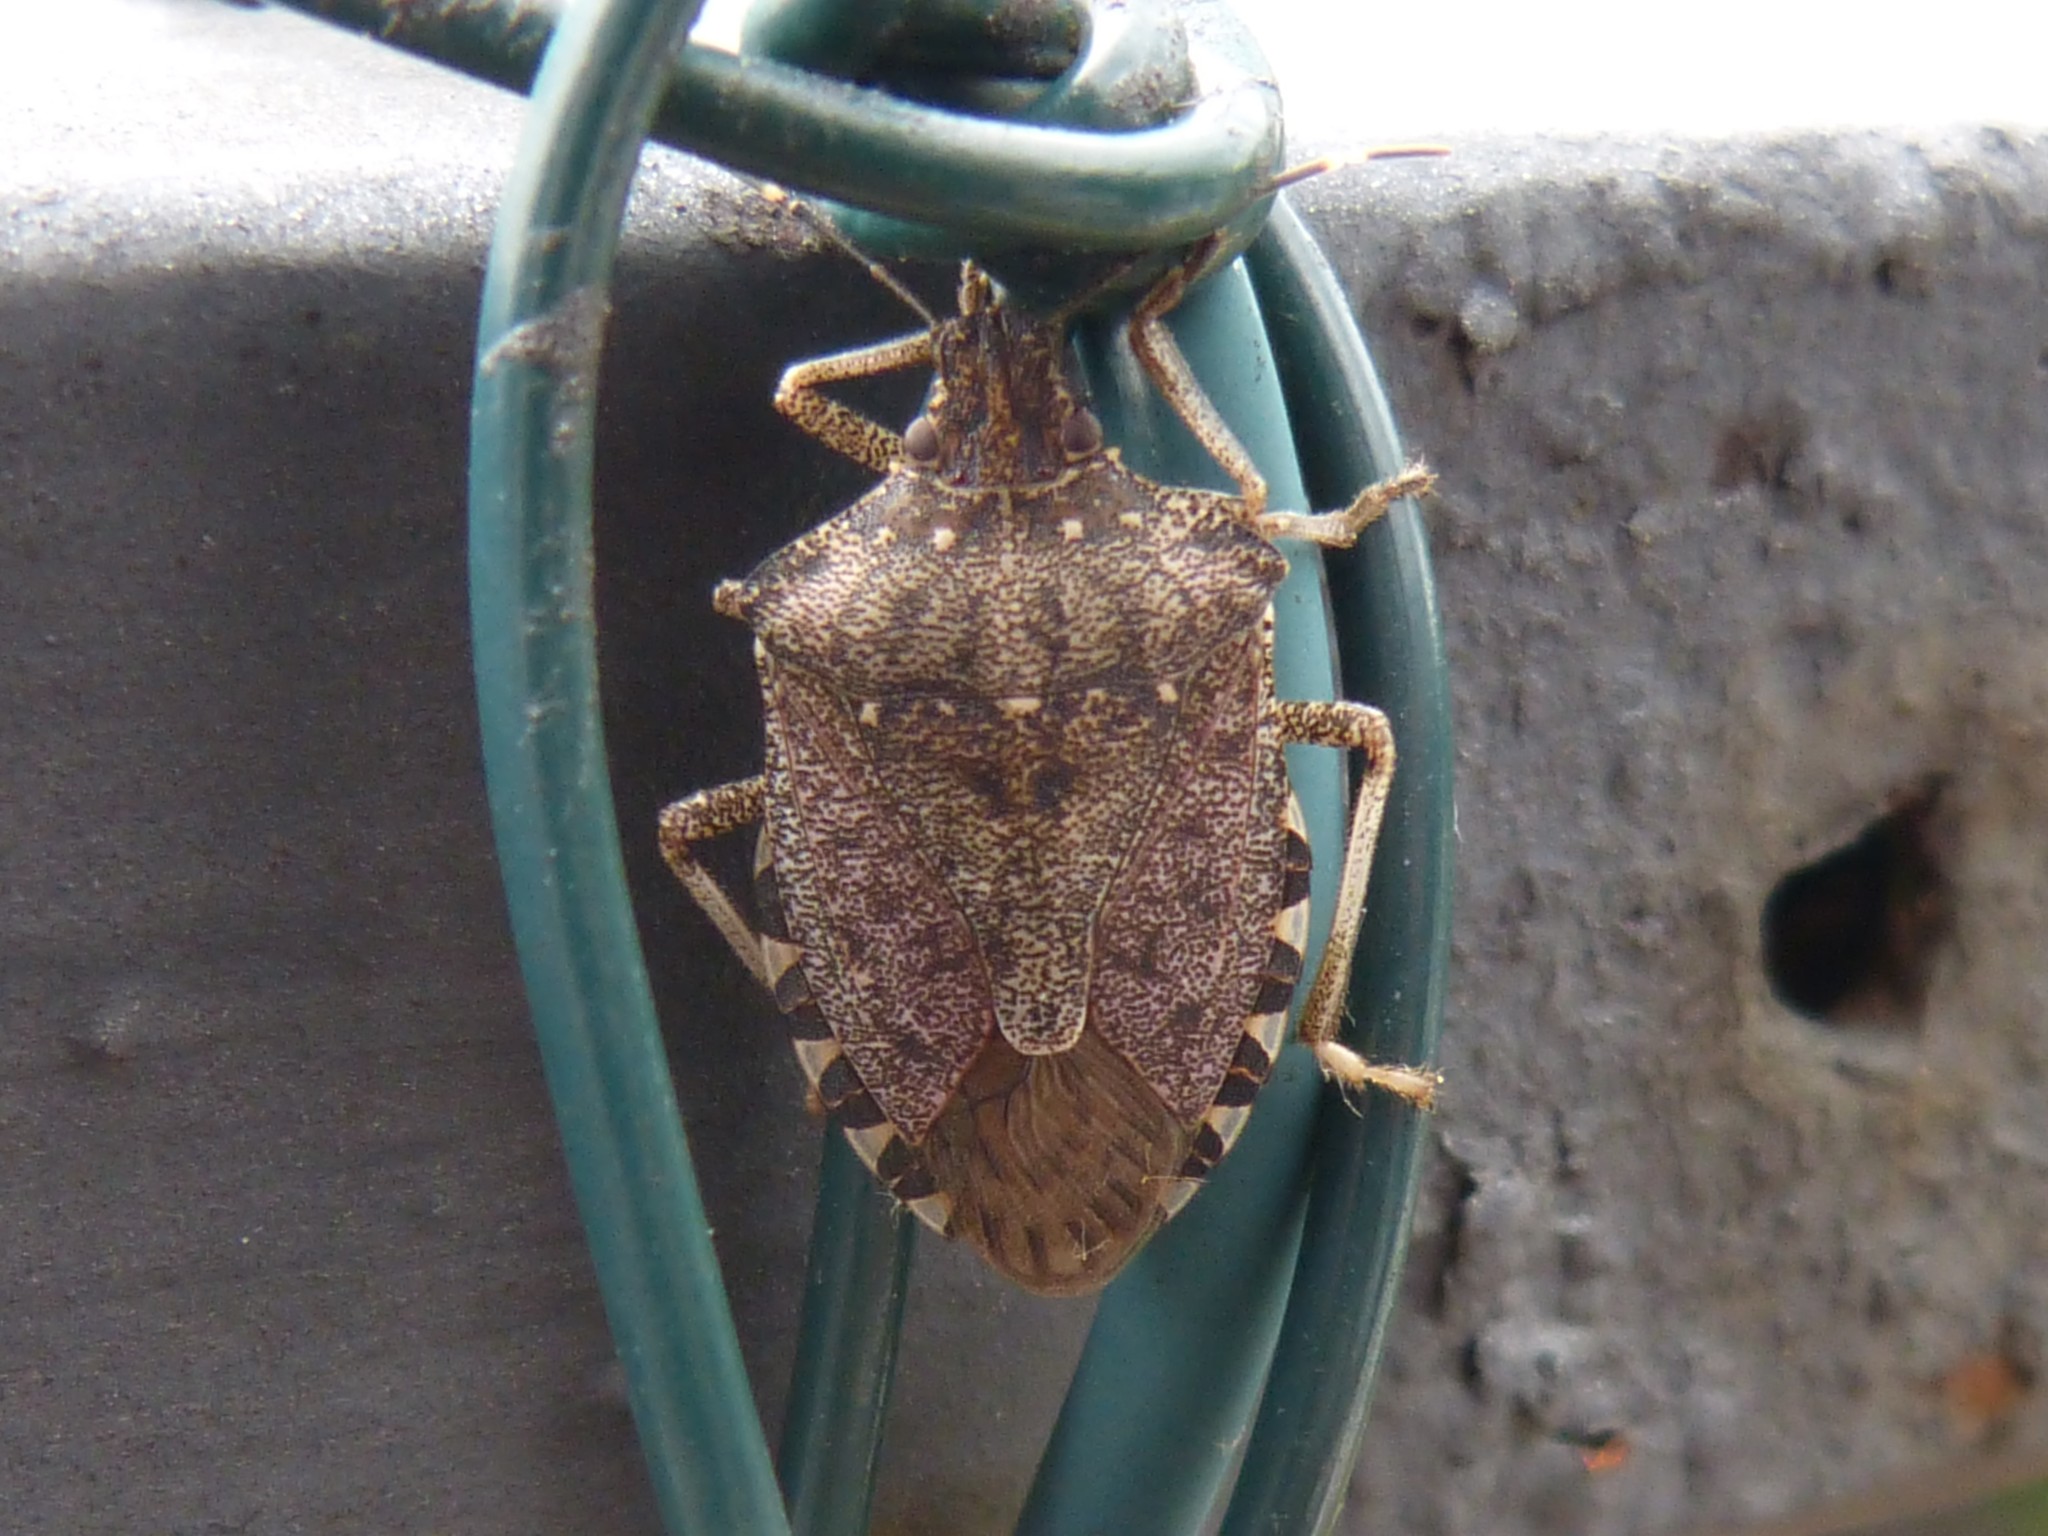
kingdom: Animalia
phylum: Arthropoda
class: Insecta
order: Hemiptera
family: Pentatomidae
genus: Halyomorpha
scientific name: Halyomorpha halys
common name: Brown marmorated stink bug
